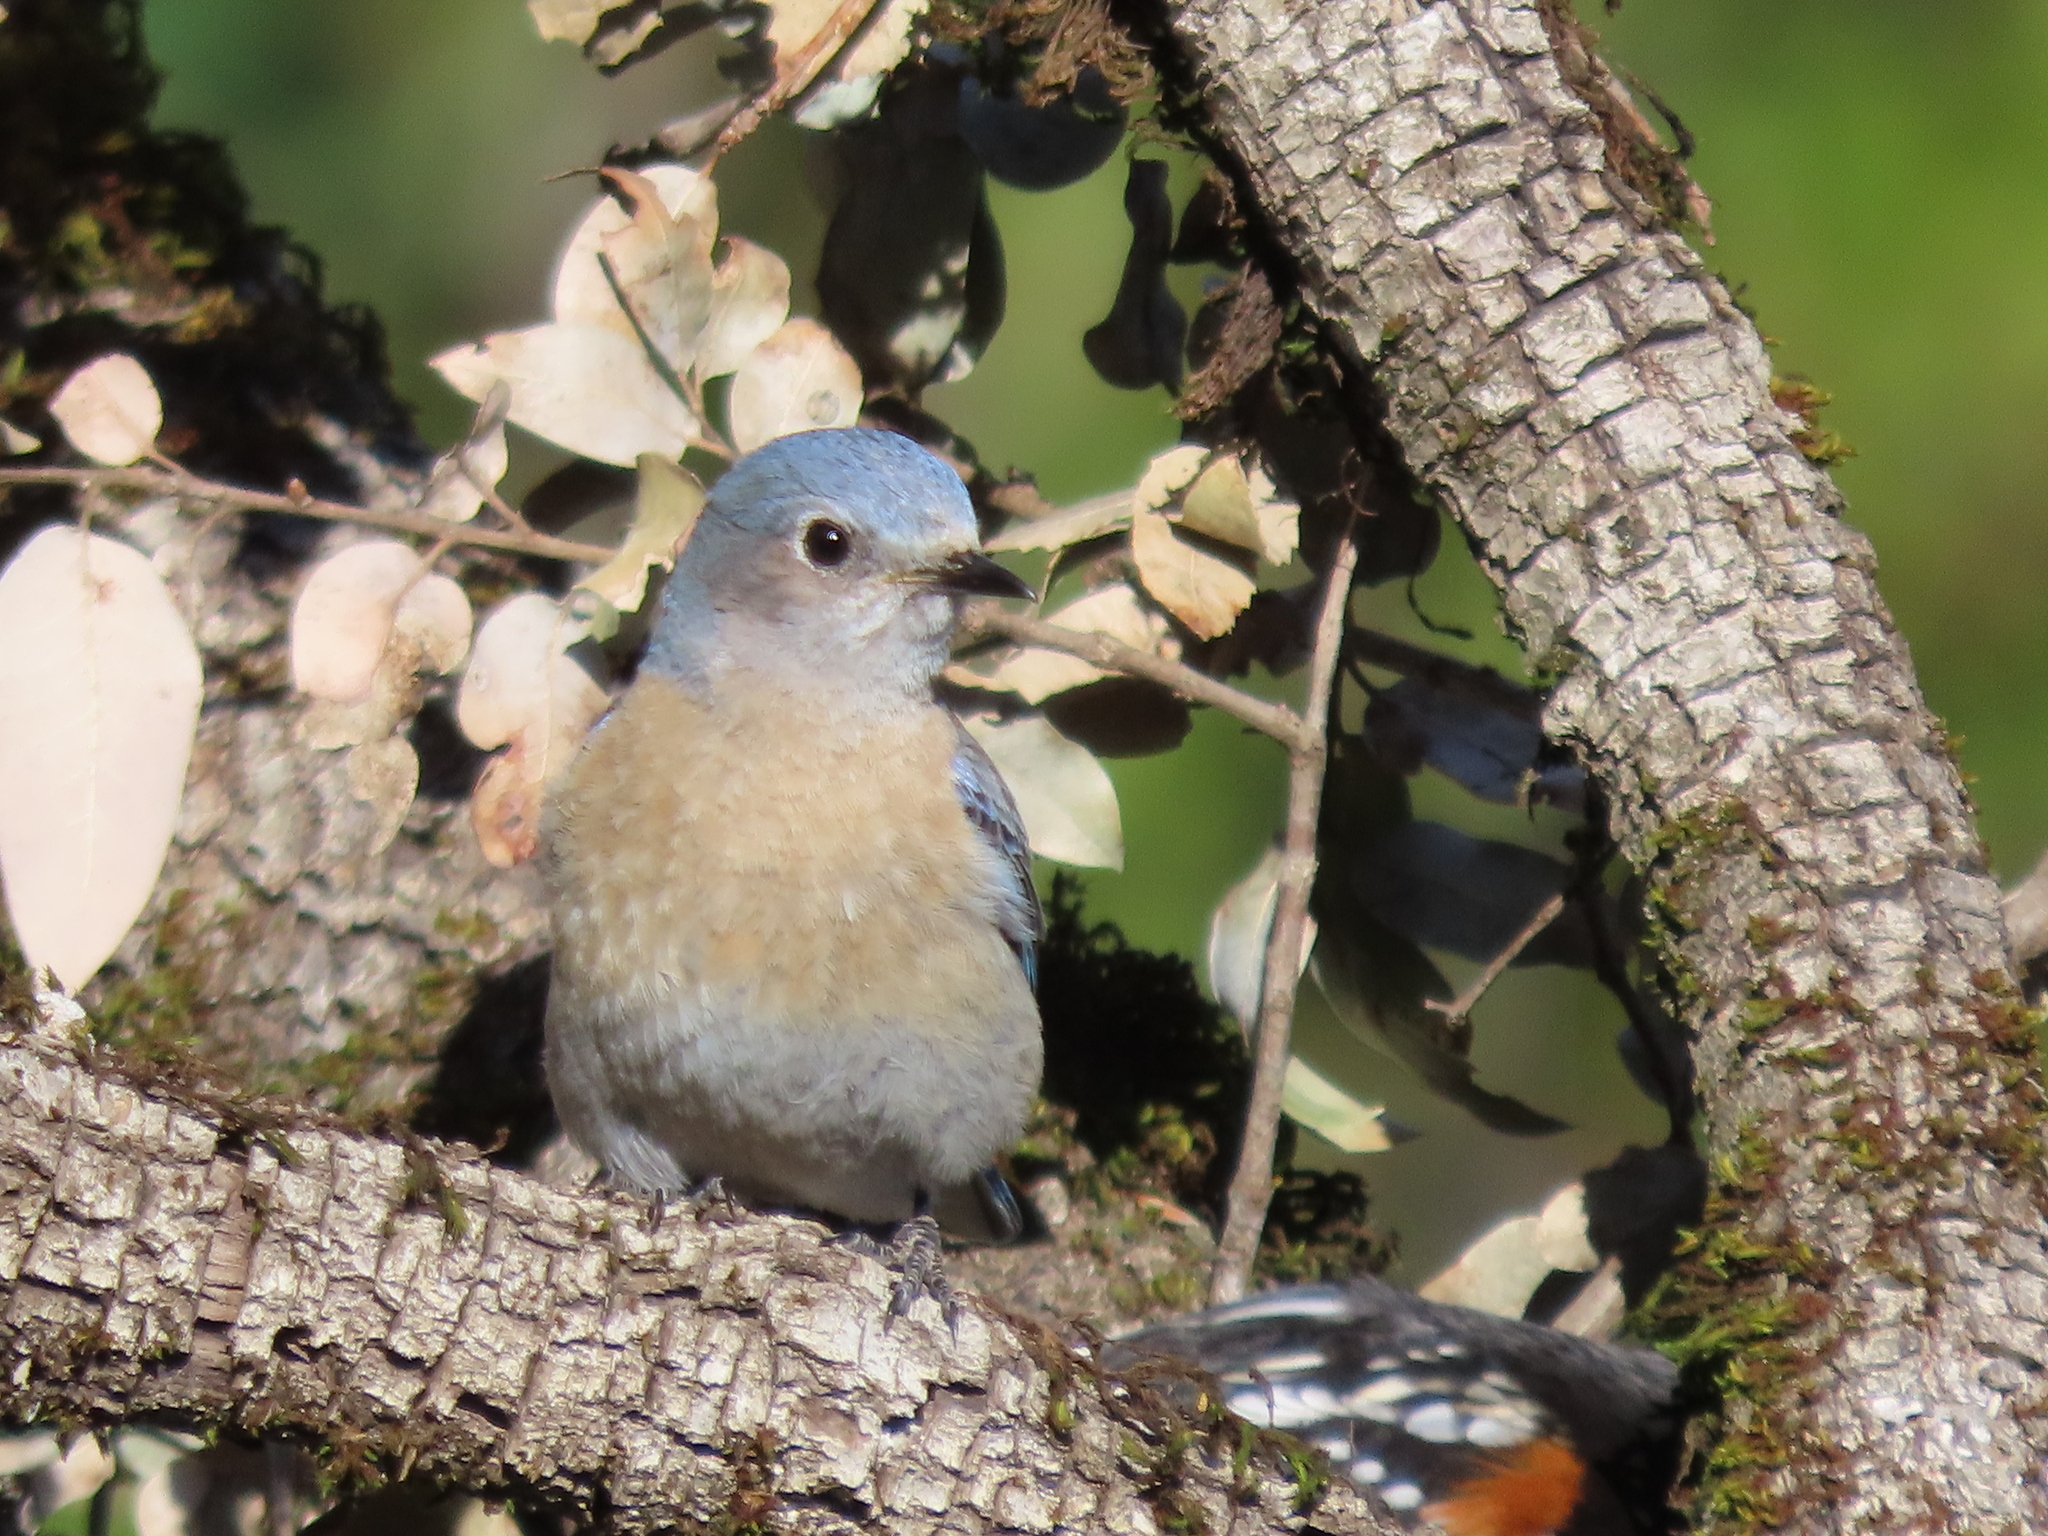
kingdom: Animalia
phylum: Chordata
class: Aves
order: Passeriformes
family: Turdidae
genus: Sialia
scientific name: Sialia mexicana
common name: Western bluebird
